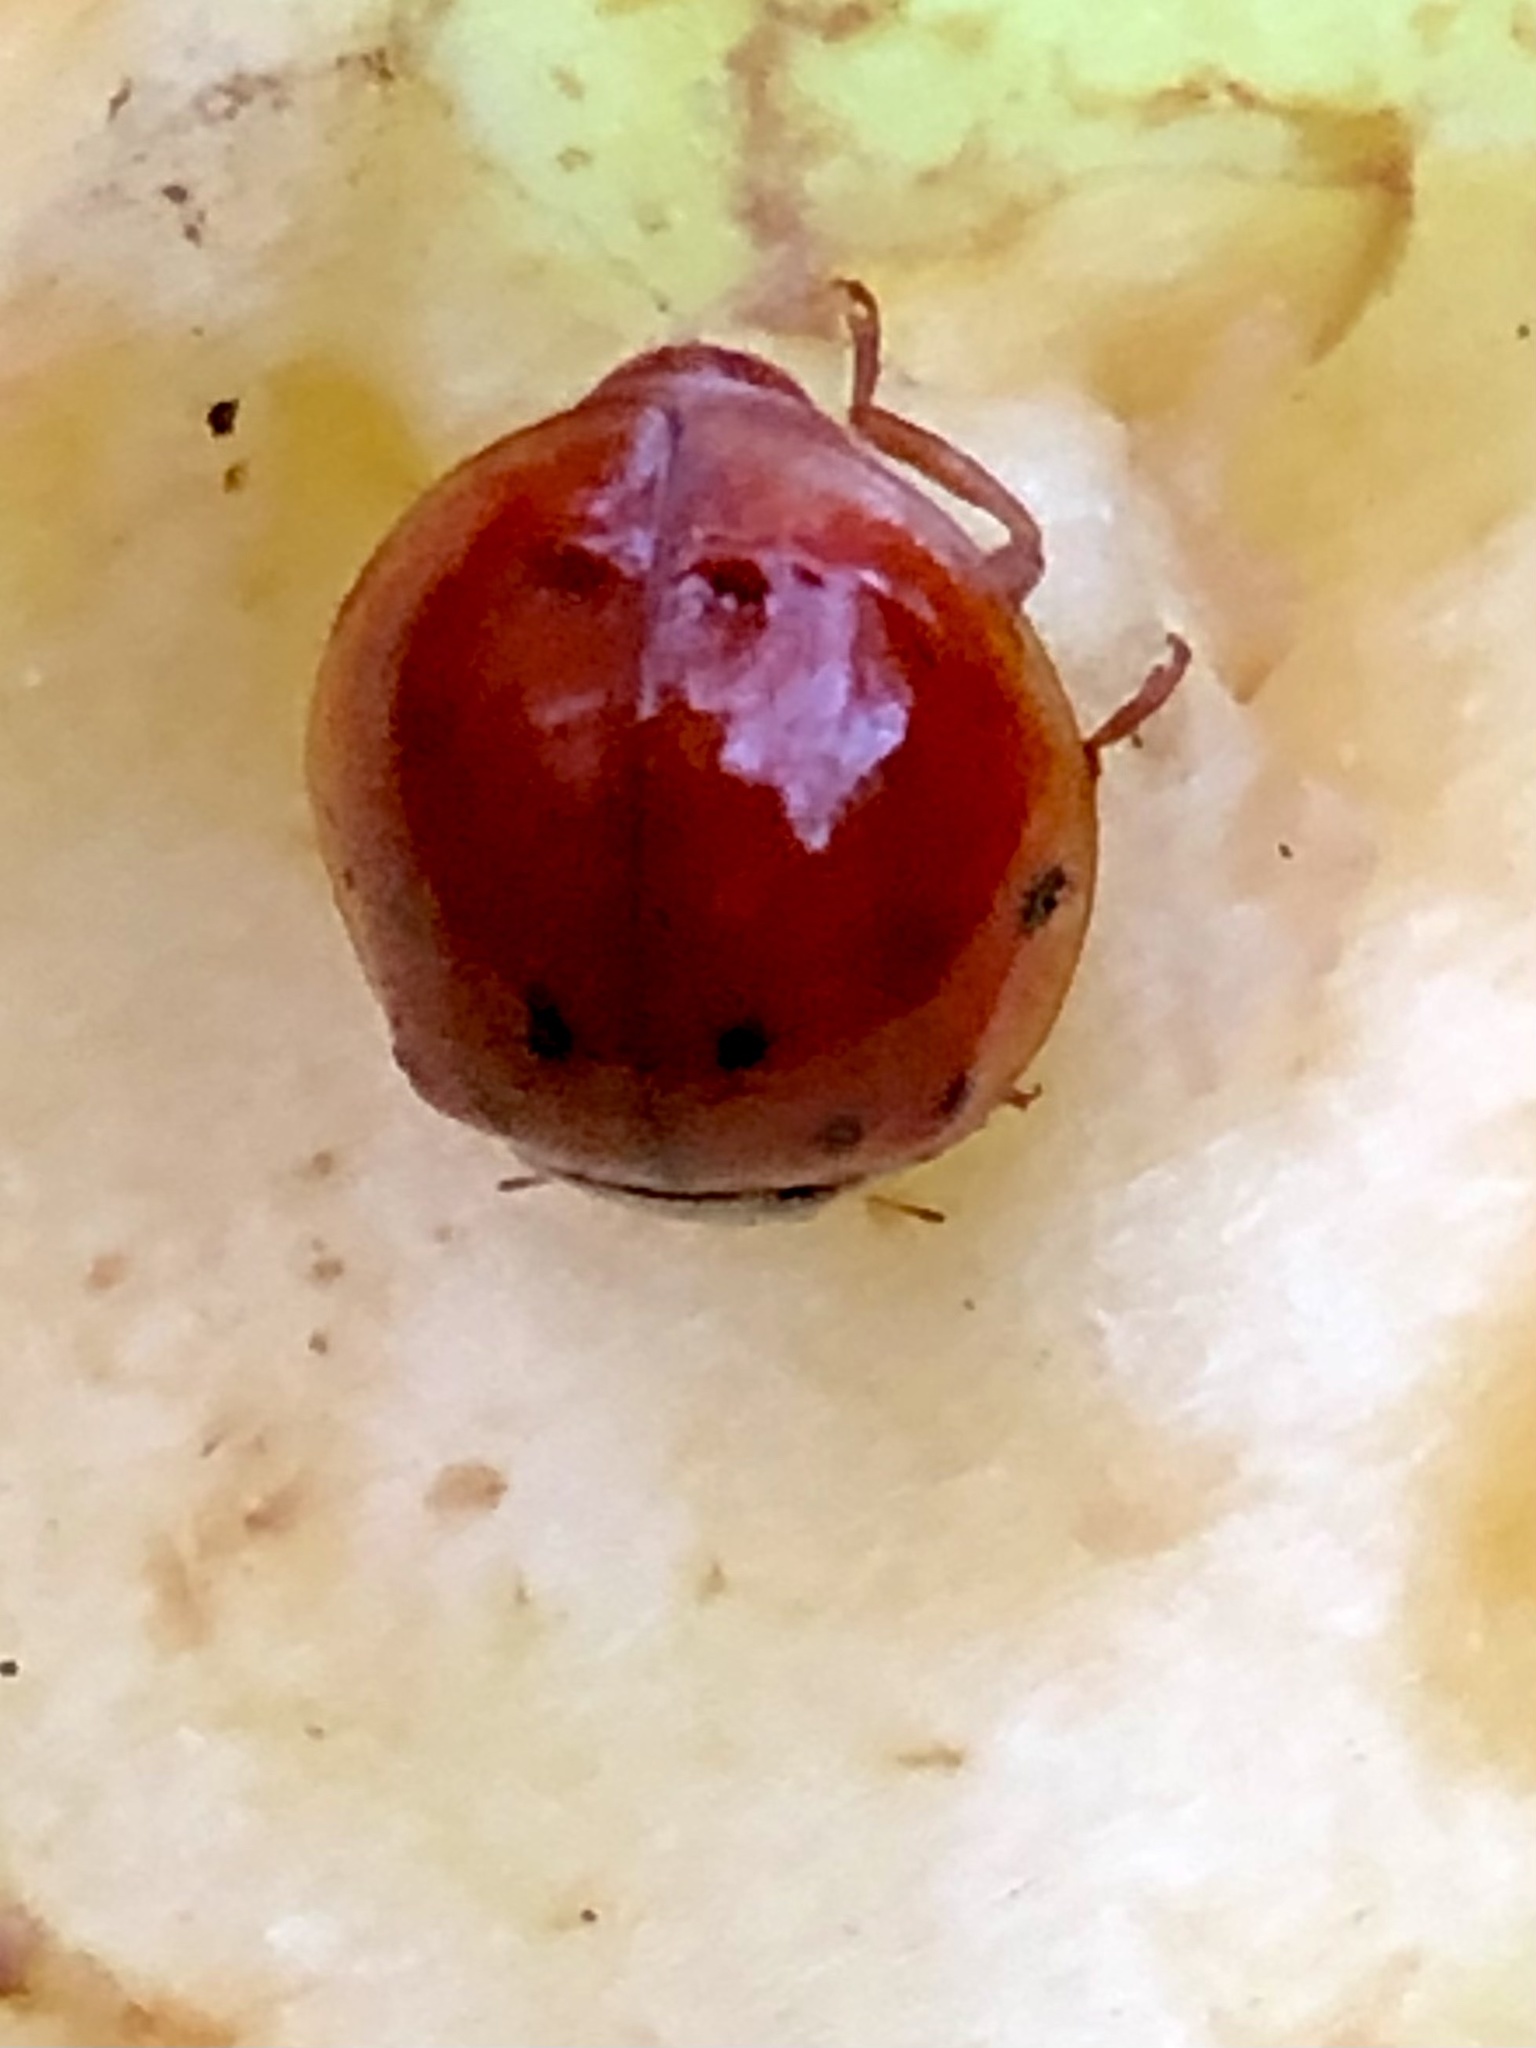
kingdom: Animalia
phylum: Arthropoda
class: Insecta
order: Coleoptera
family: Coccinellidae
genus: Harmonia
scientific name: Harmonia axyridis
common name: Harlequin ladybird
